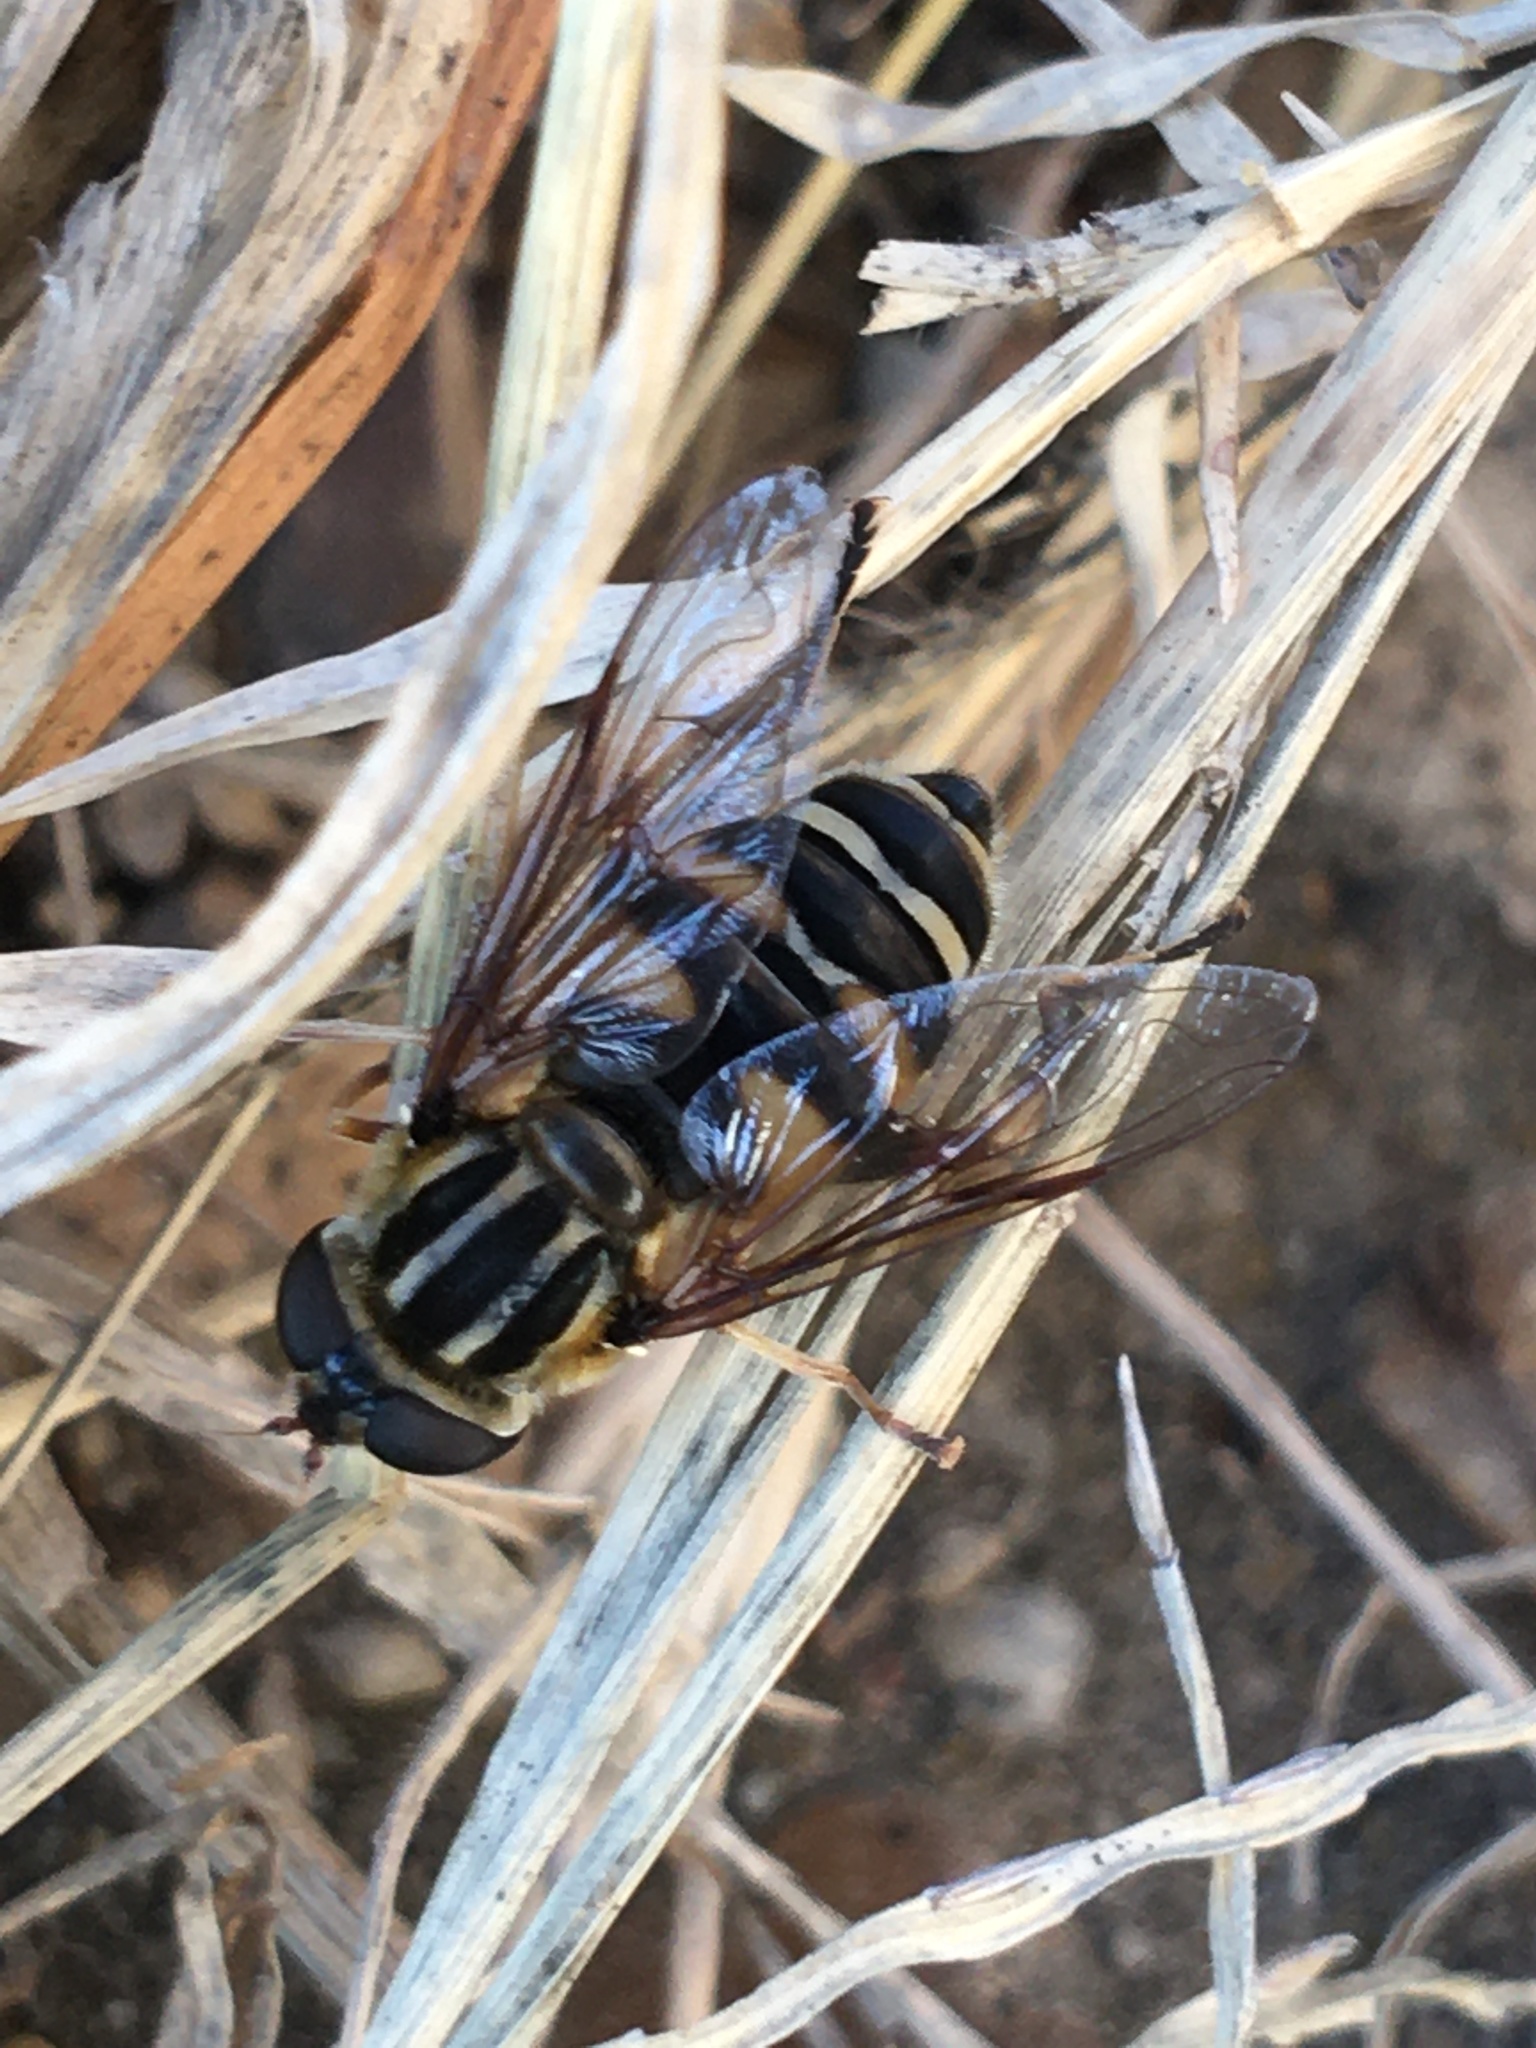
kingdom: Animalia
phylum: Arthropoda
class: Insecta
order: Diptera
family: Syrphidae
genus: Helophilus
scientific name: Helophilus fasciatus
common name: Narrow-headed marsh fly
